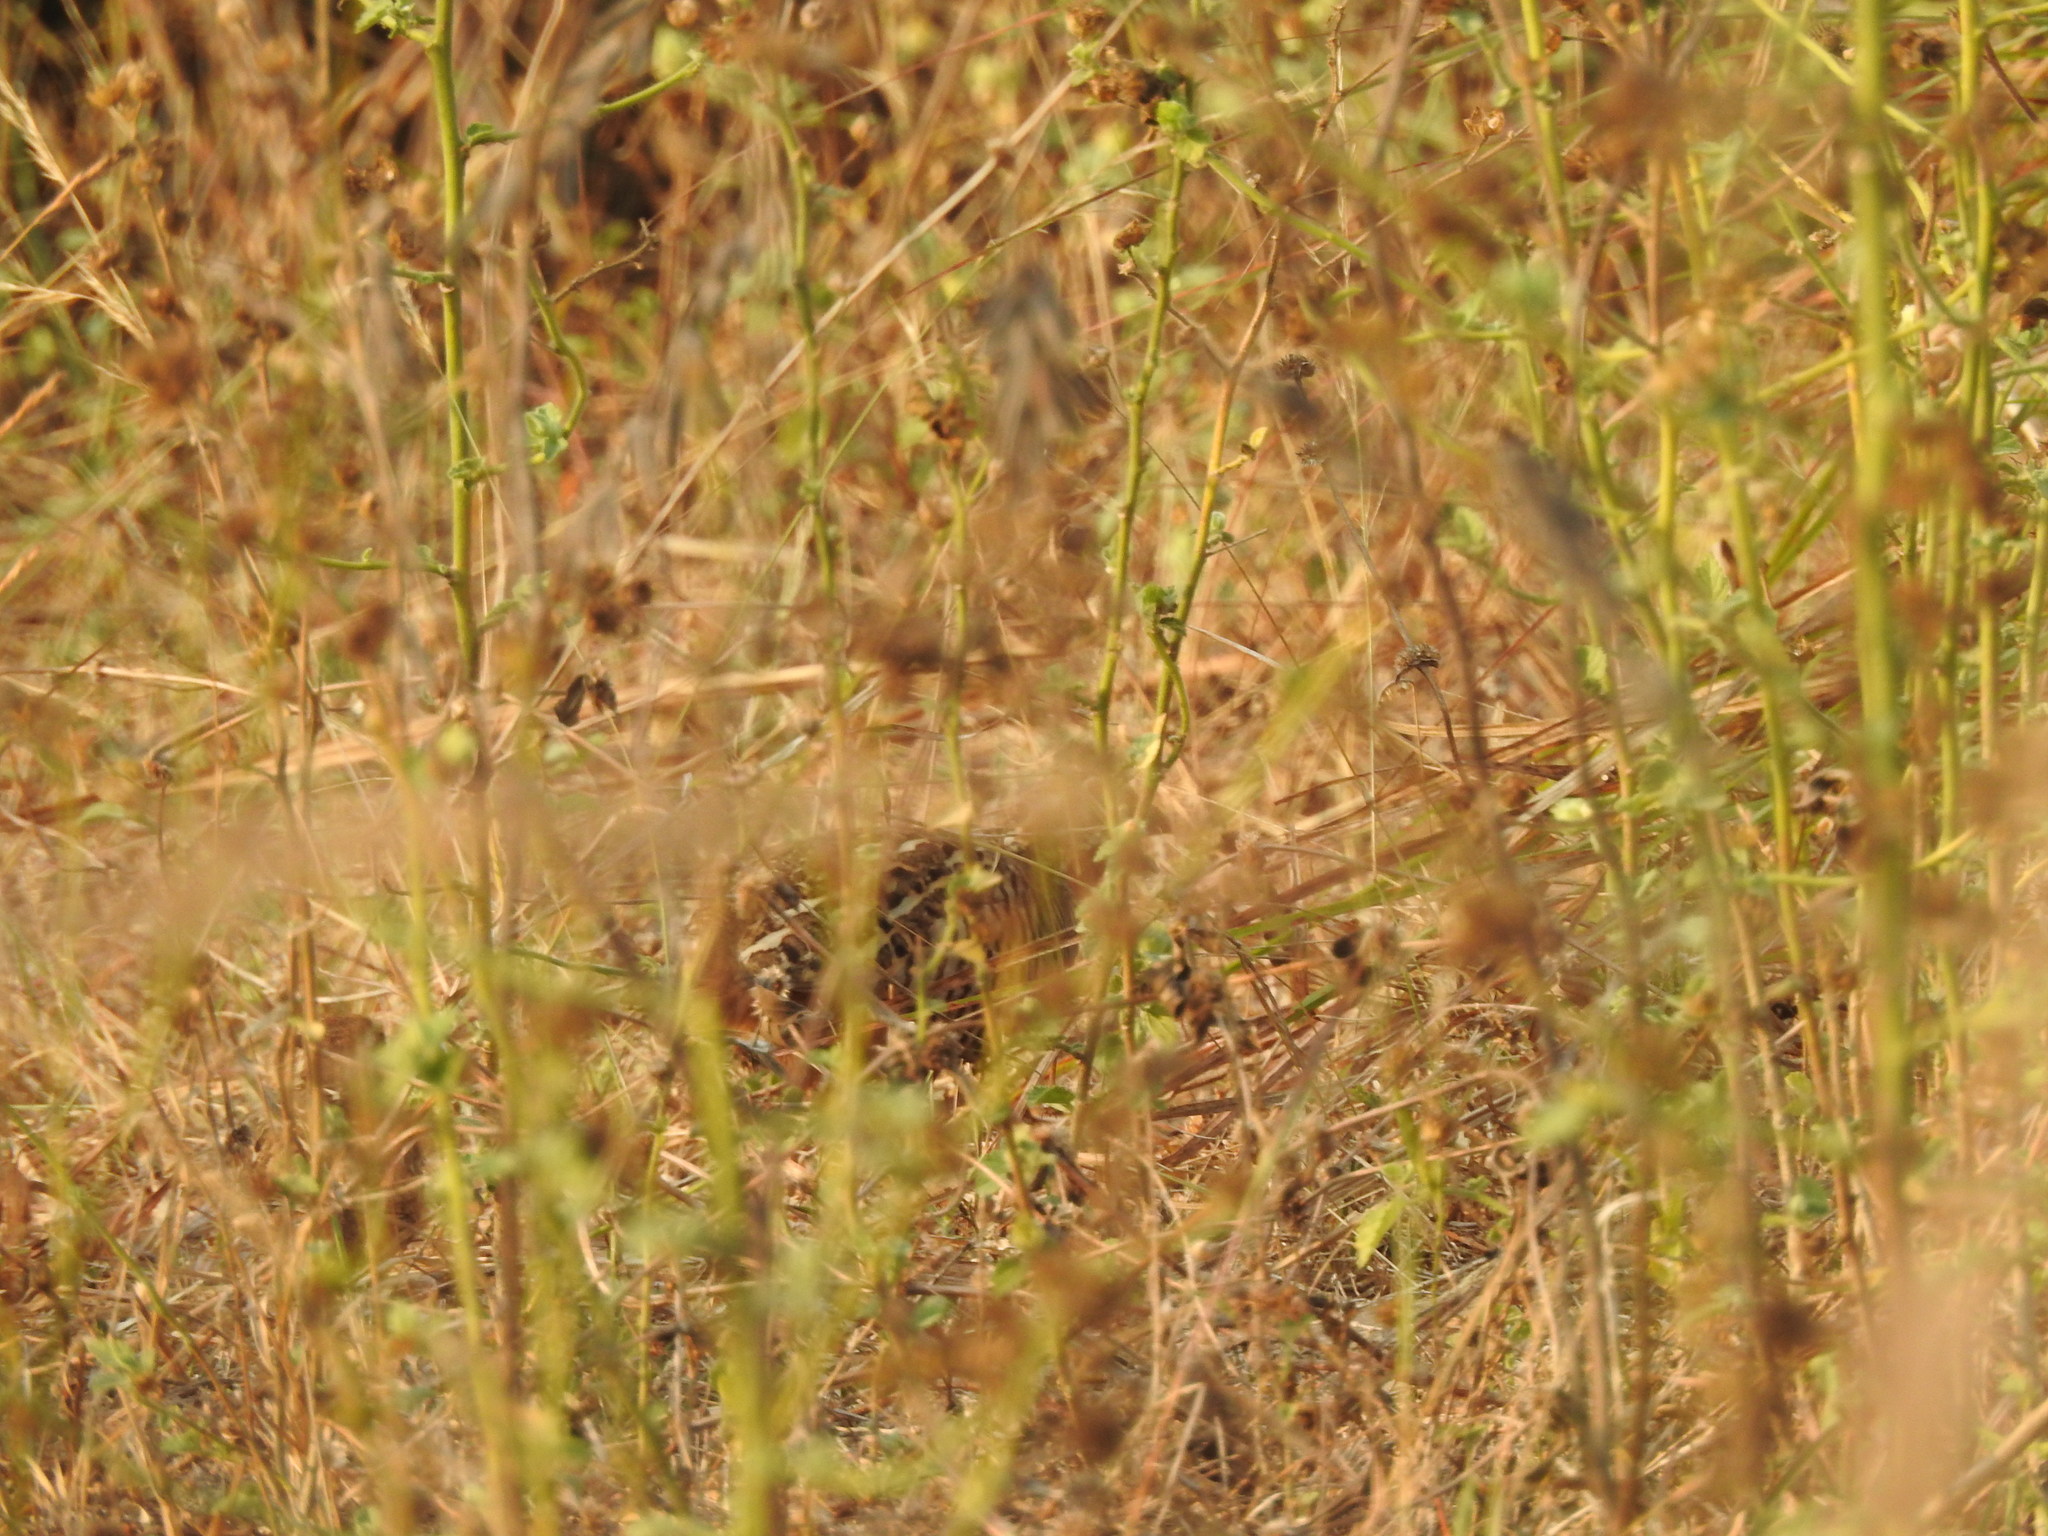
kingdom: Animalia
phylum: Chordata
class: Aves
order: Galliformes
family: Phasianidae
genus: Perdicula
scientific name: Perdicula asiatica
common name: Jungle bush quail
